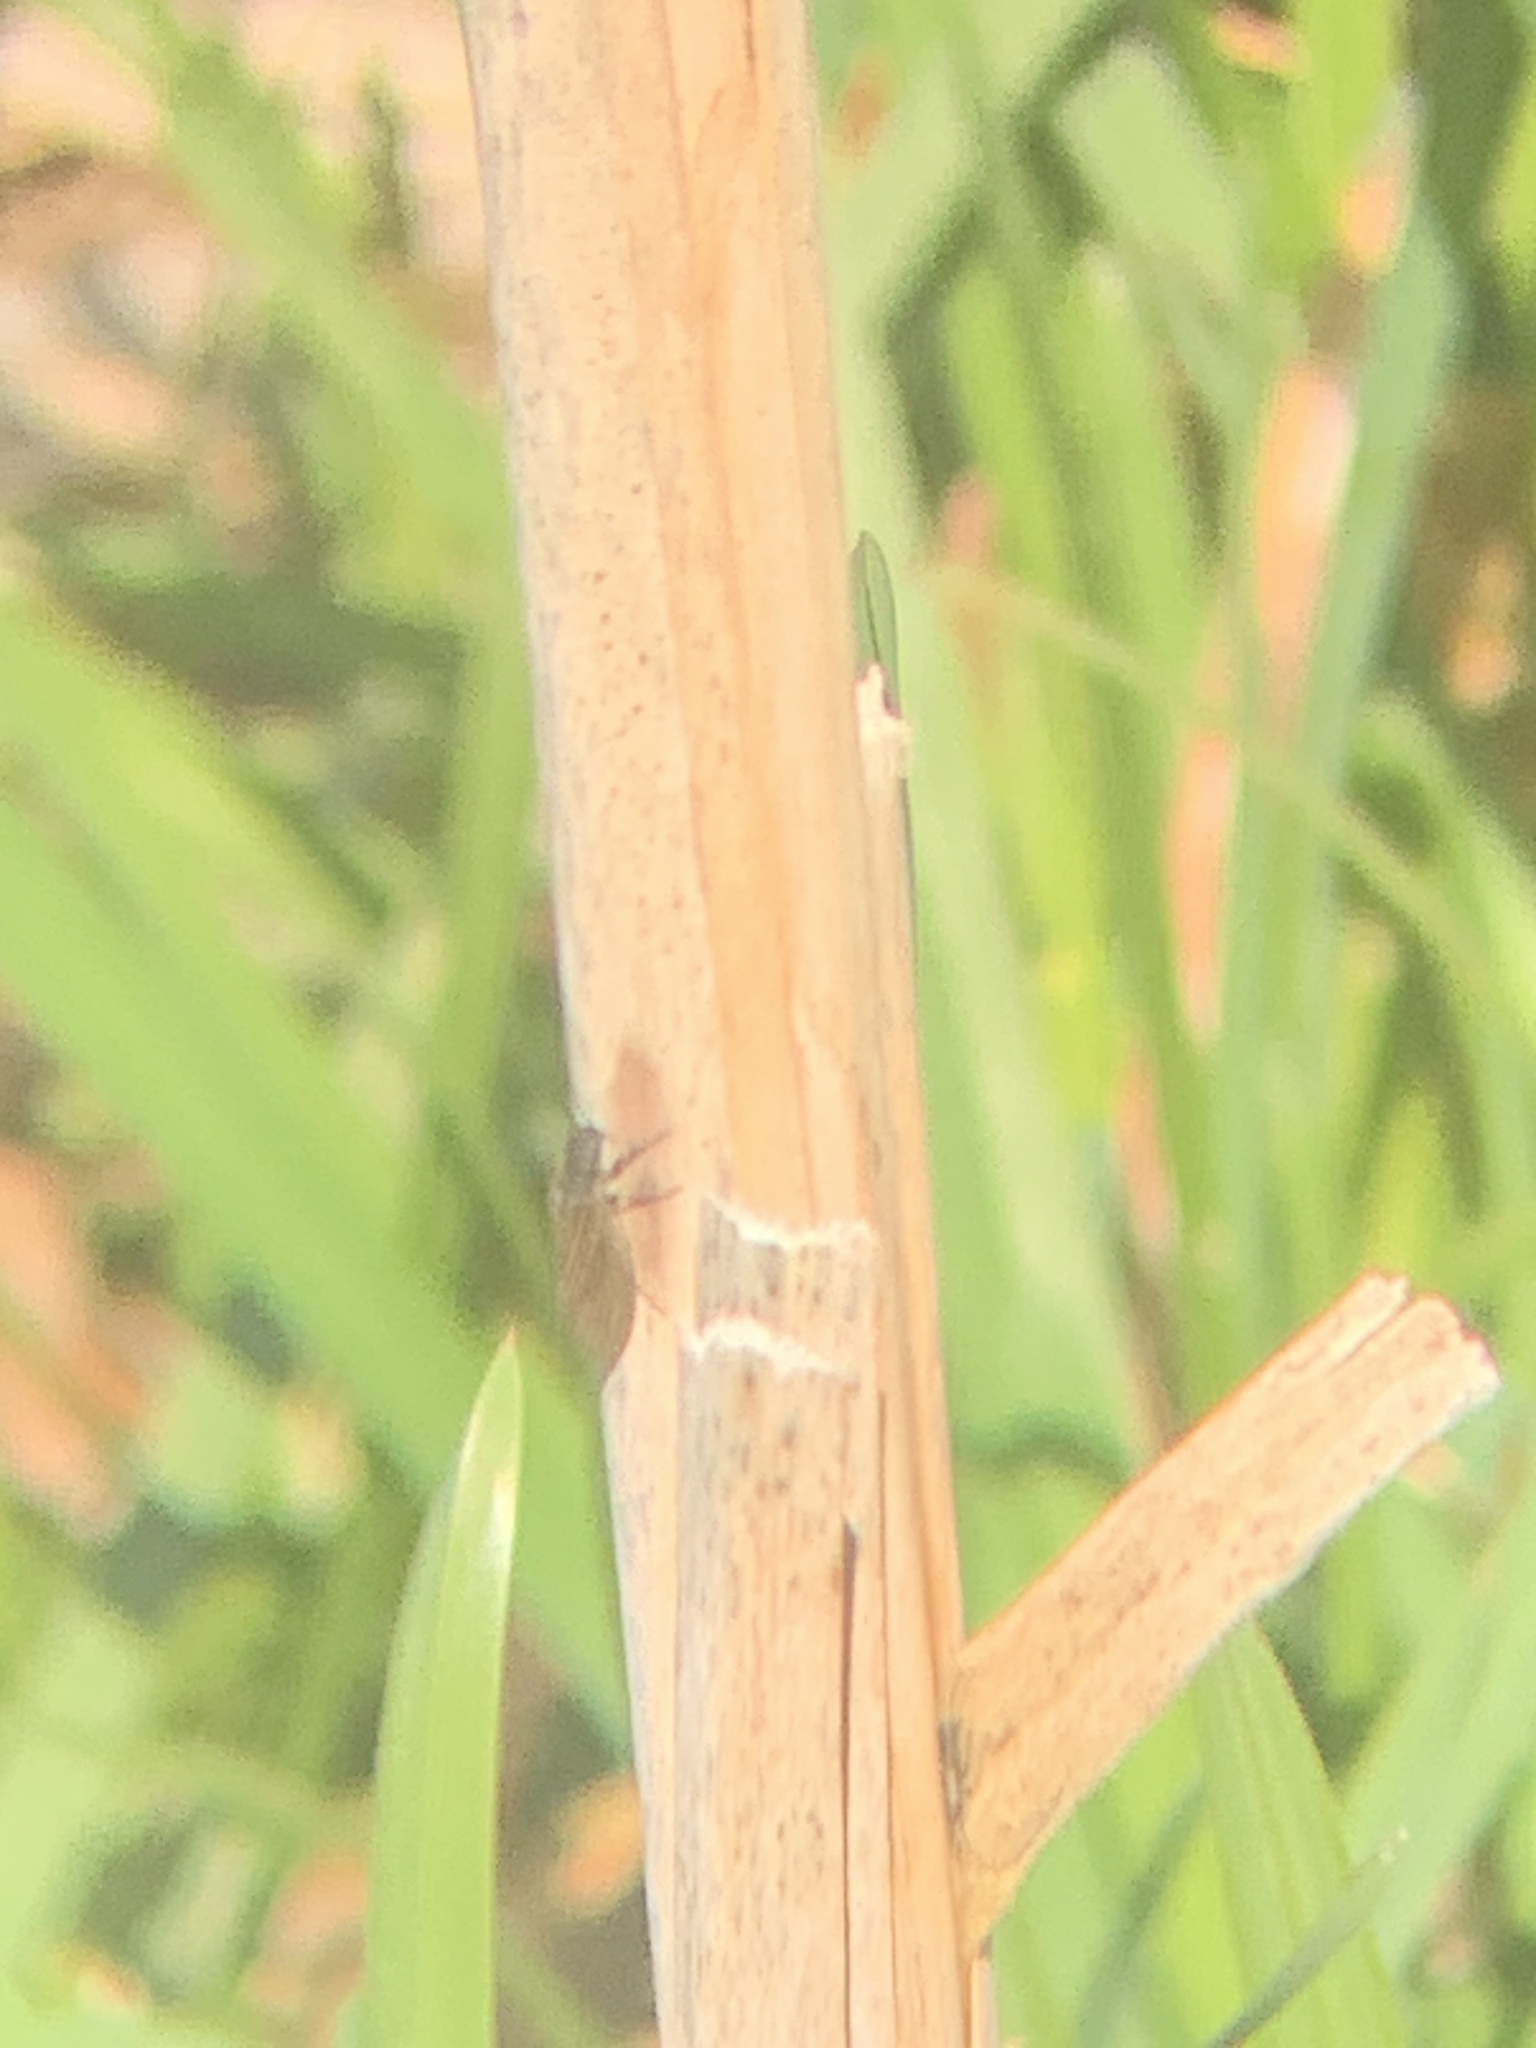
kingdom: Animalia
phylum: Arthropoda
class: Insecta
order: Megaloptera
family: Sialidae
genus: Sialis
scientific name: Sialis
